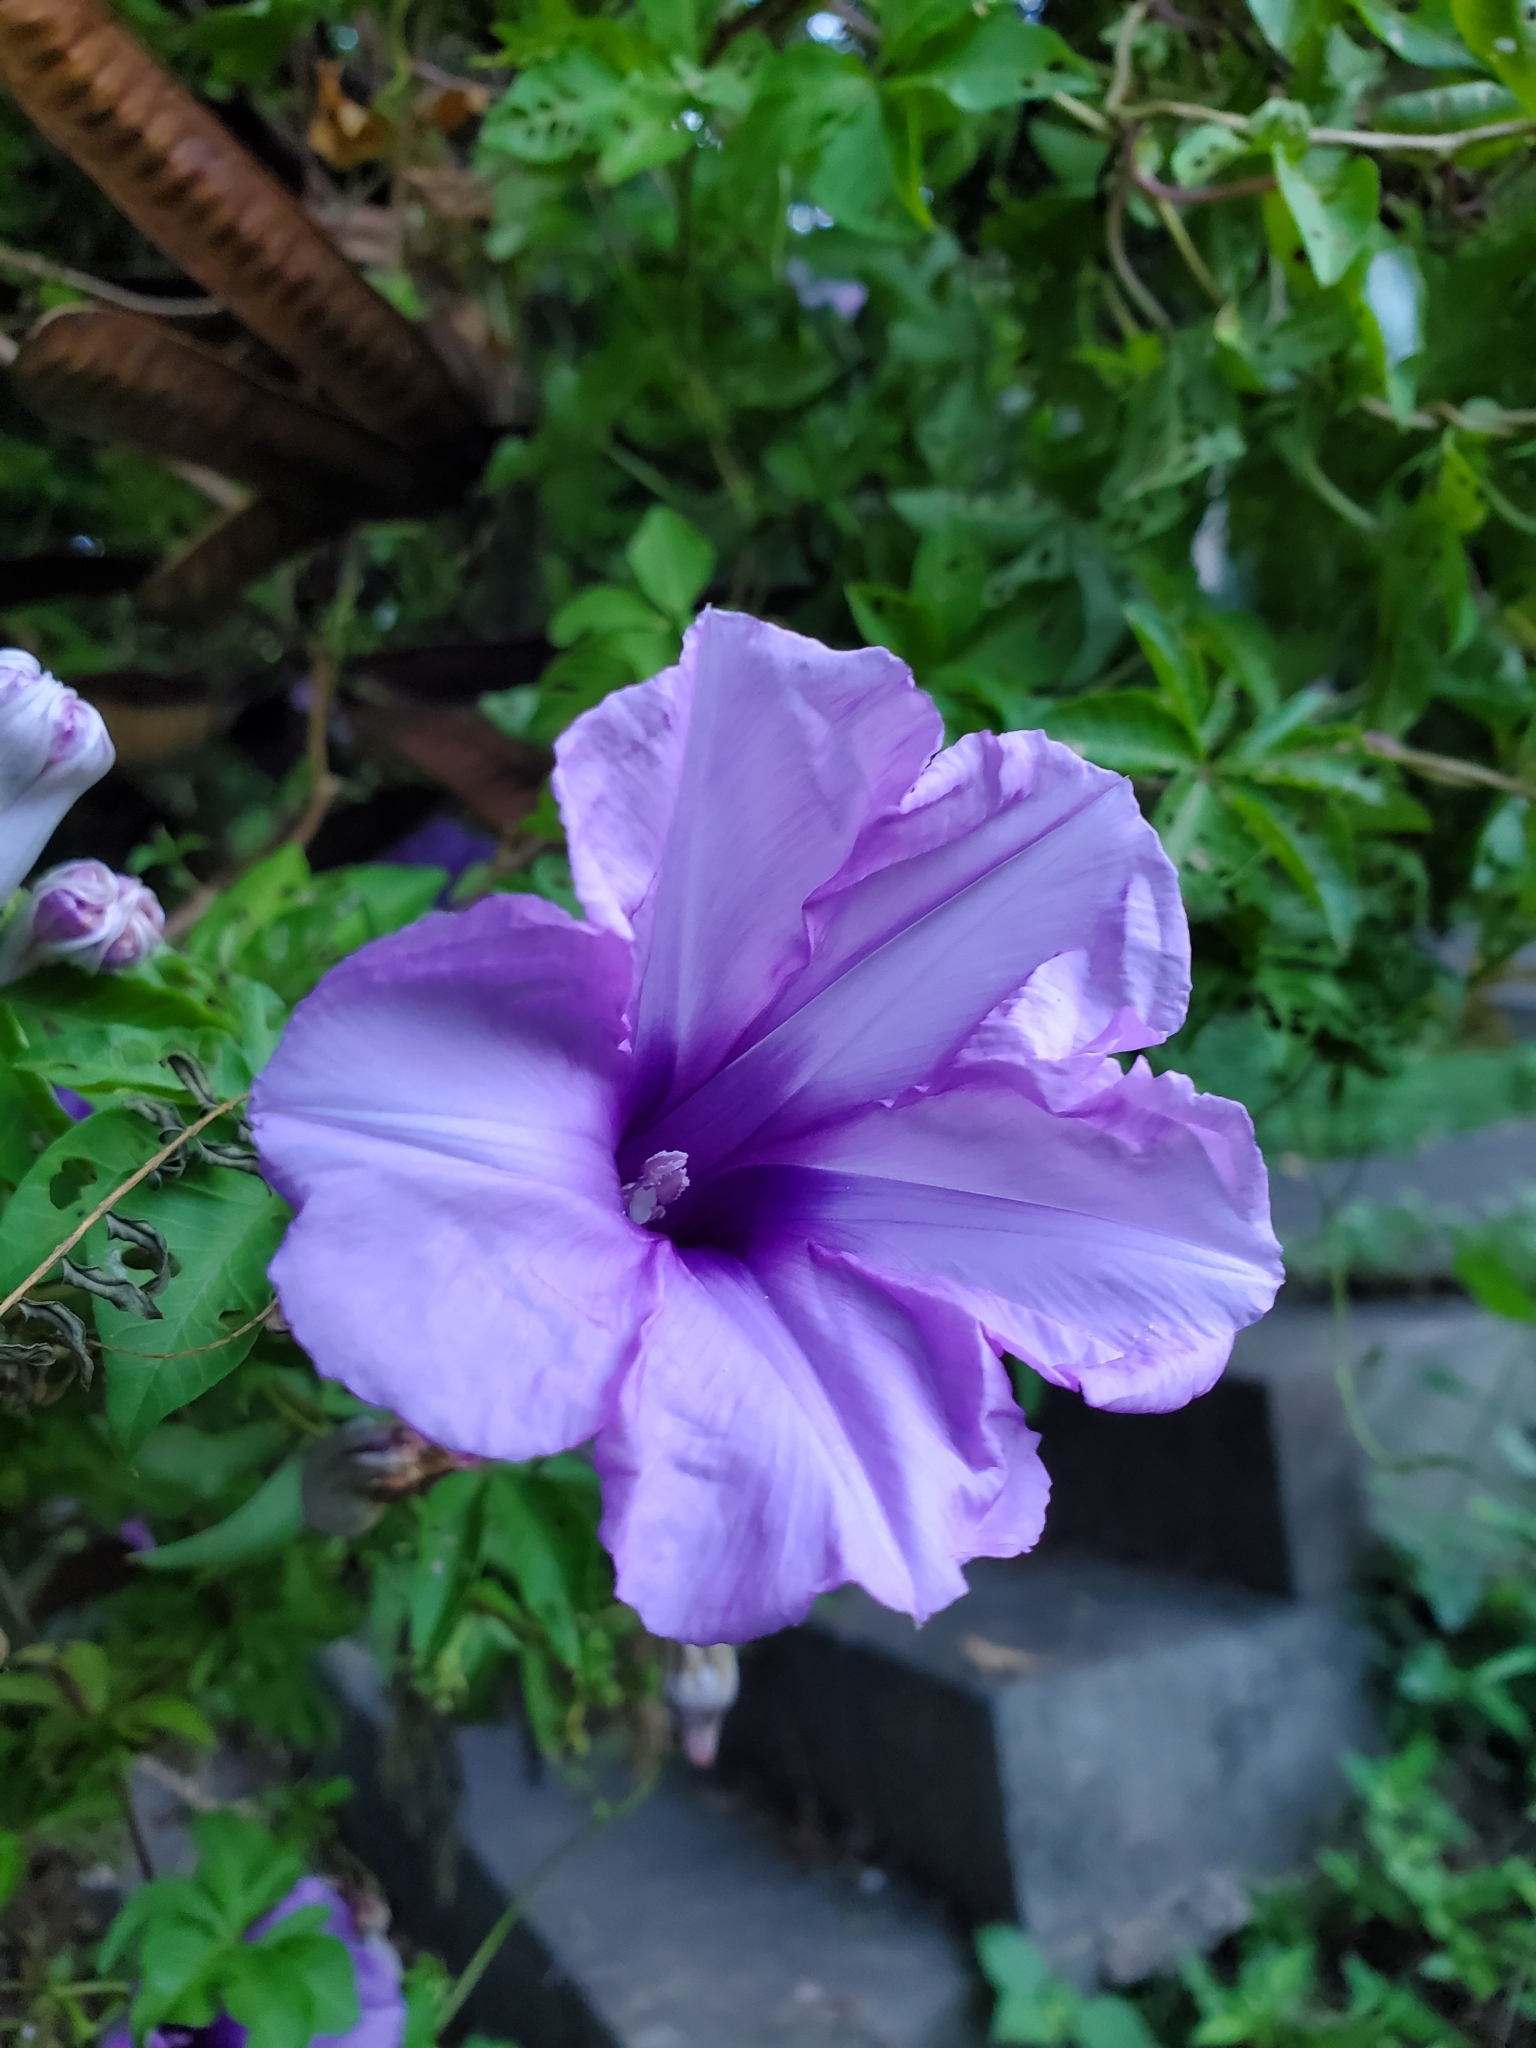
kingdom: Plantae
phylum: Tracheophyta
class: Magnoliopsida
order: Solanales
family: Convolvulaceae
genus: Ipomoea
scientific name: Ipomoea cairica
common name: Mile a minute vine
